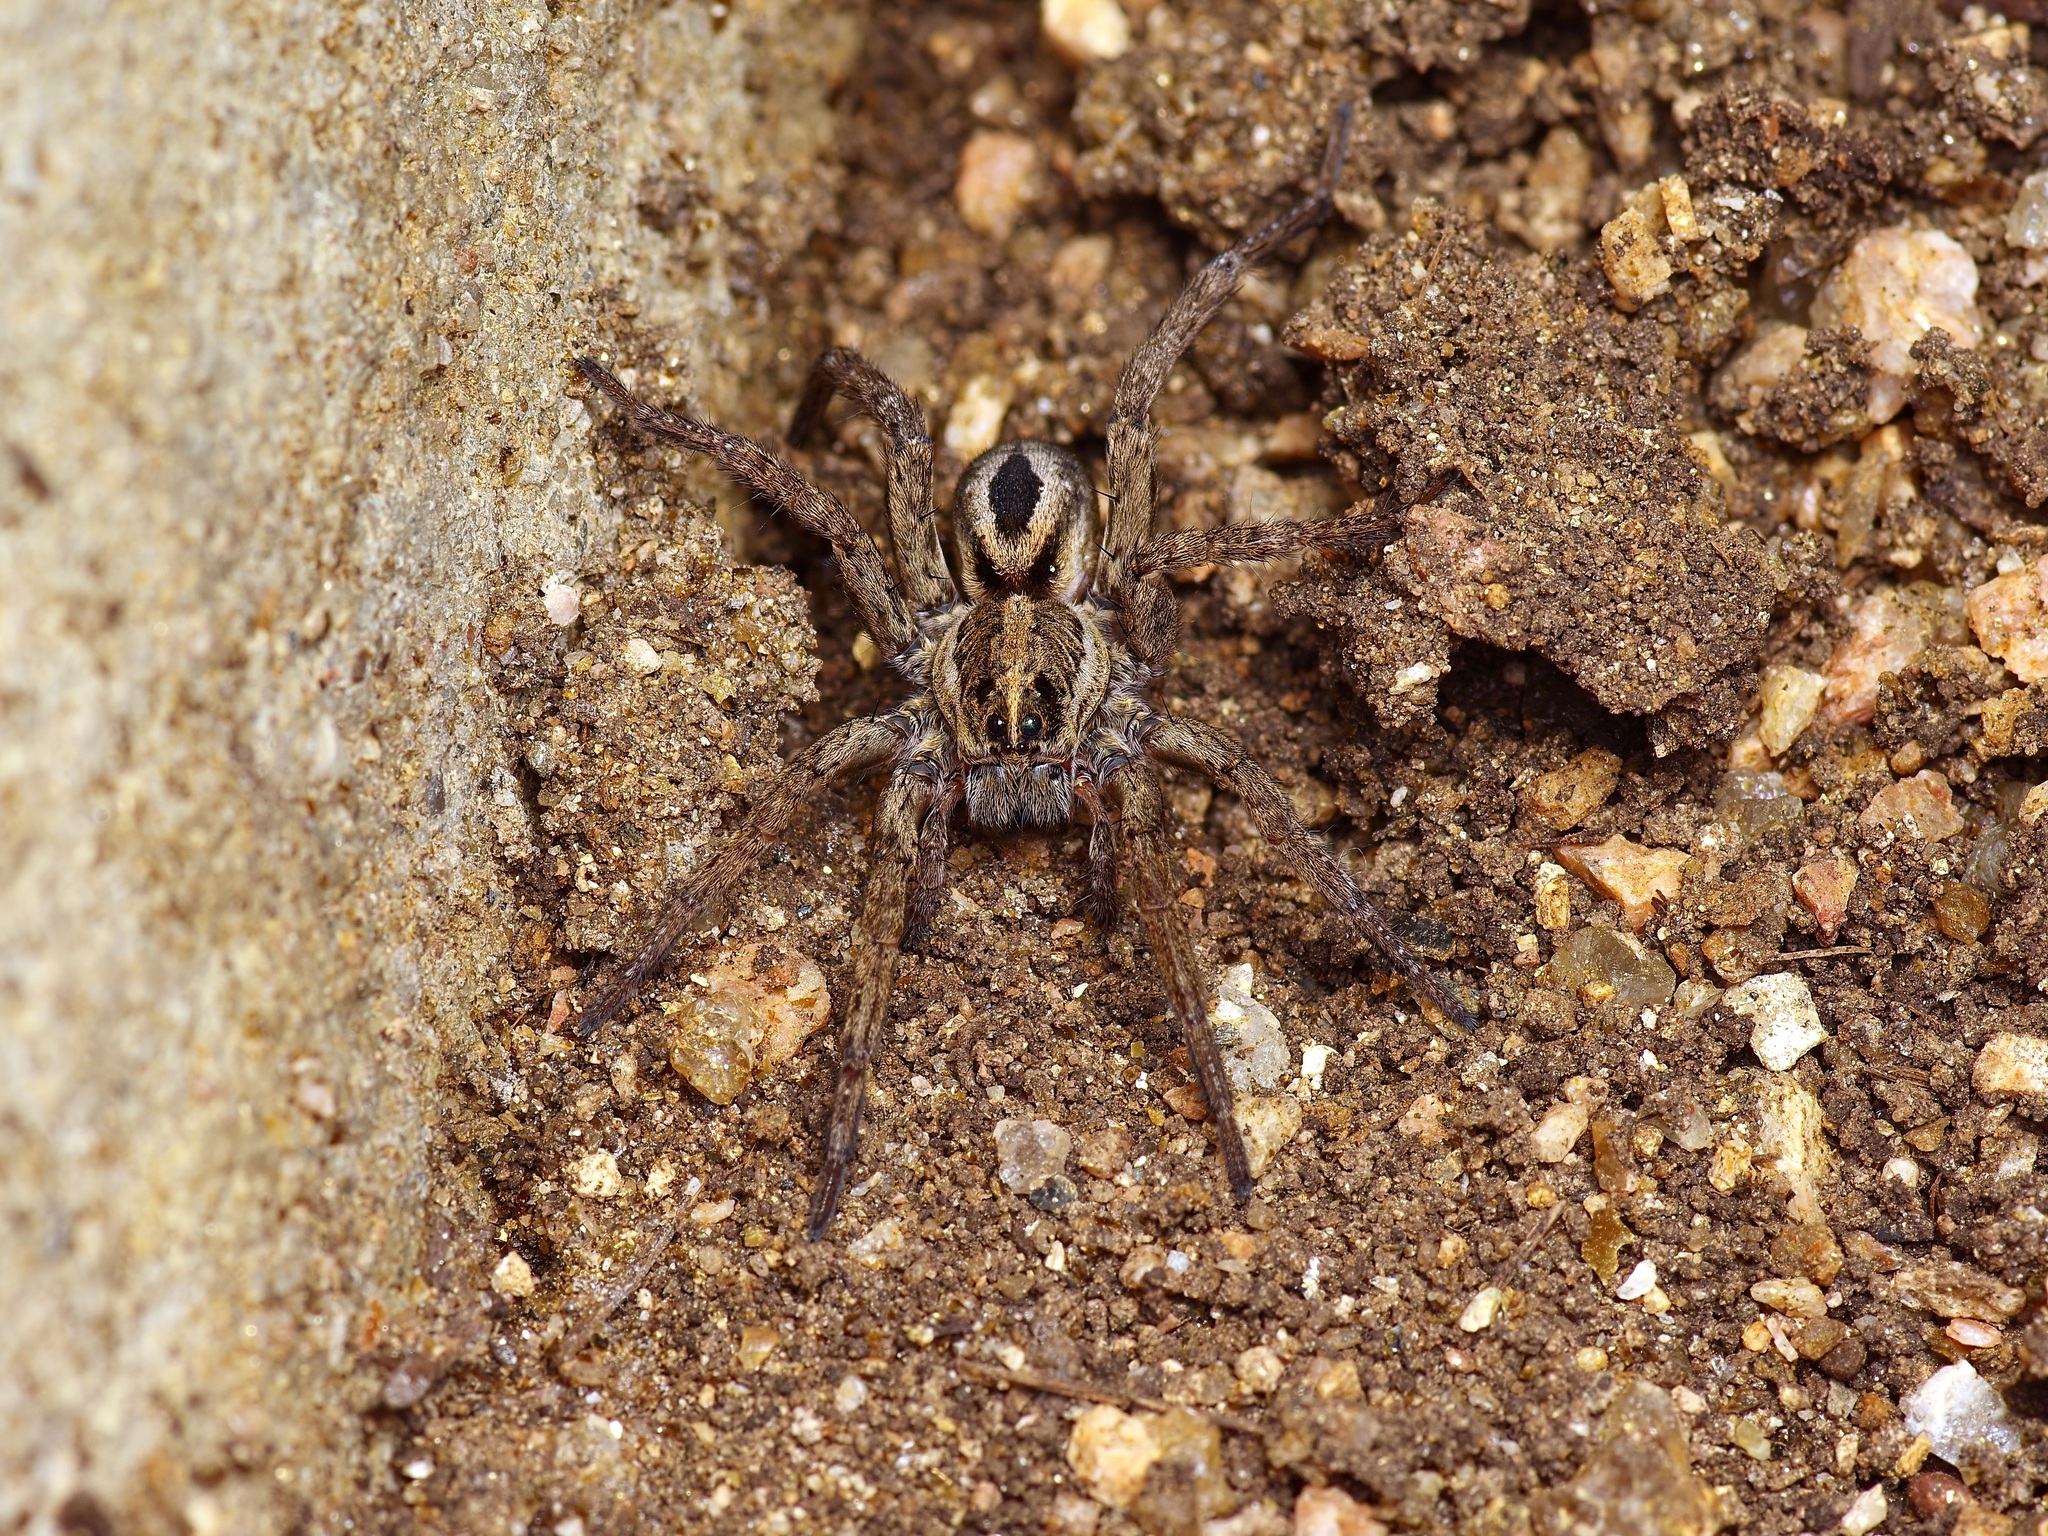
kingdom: Animalia
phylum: Arthropoda
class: Arachnida
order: Araneae
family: Lycosidae
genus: Tigrosa
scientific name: Tigrosa annexa
